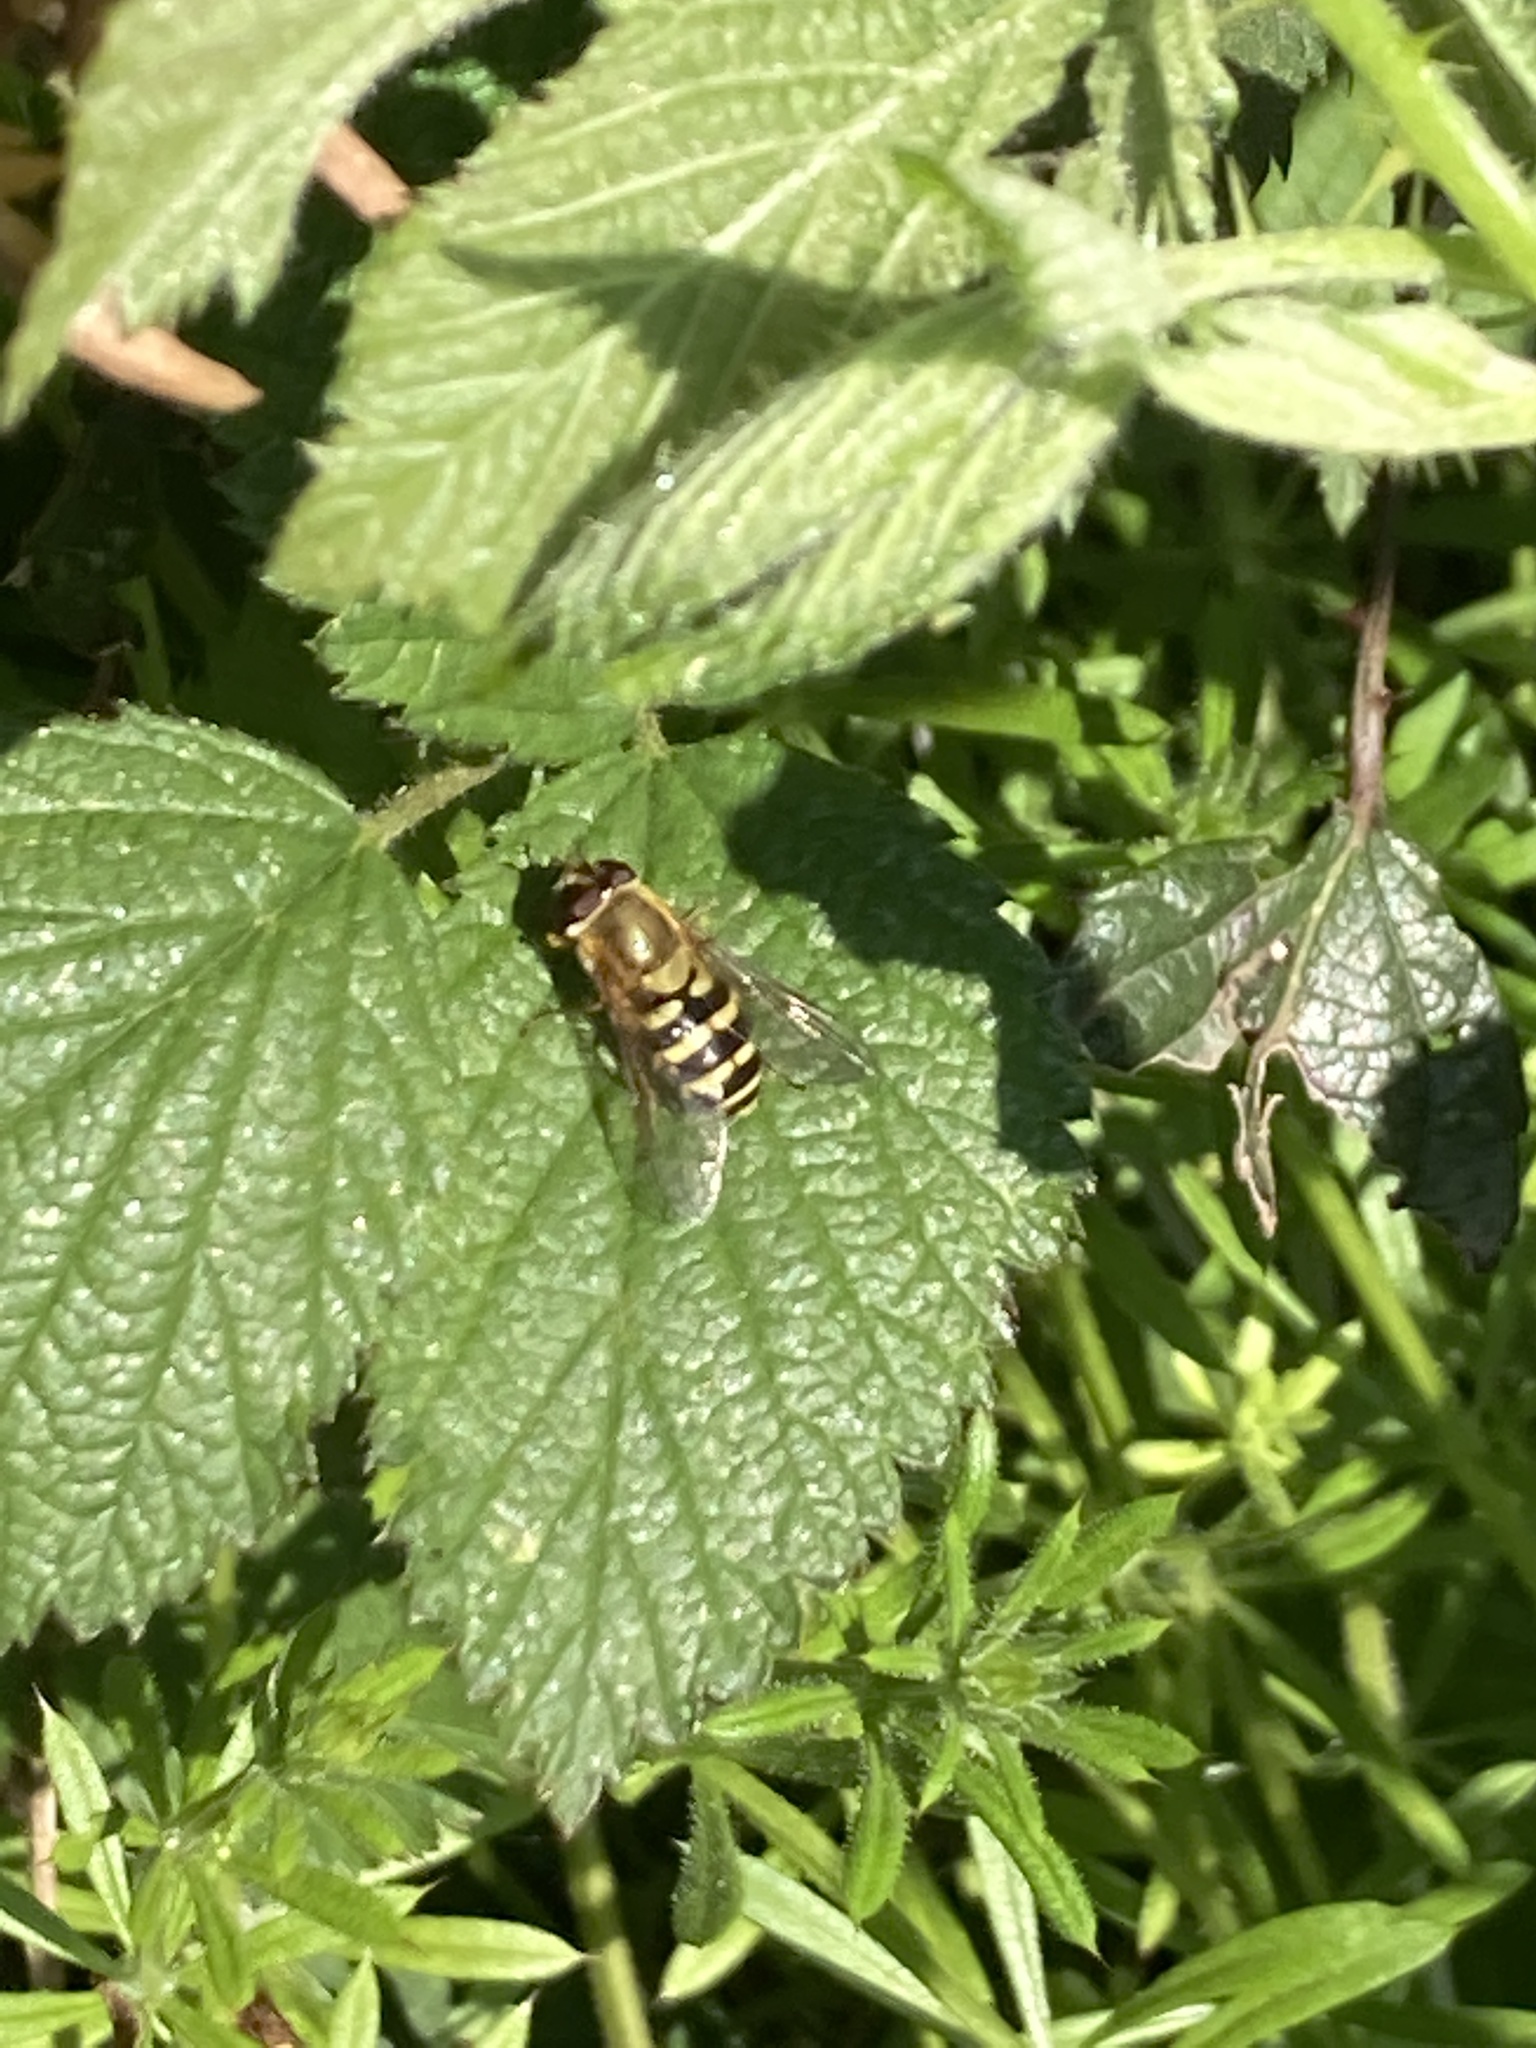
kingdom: Animalia
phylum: Arthropoda
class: Insecta
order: Diptera
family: Syrphidae
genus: Syrphus
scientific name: Syrphus
